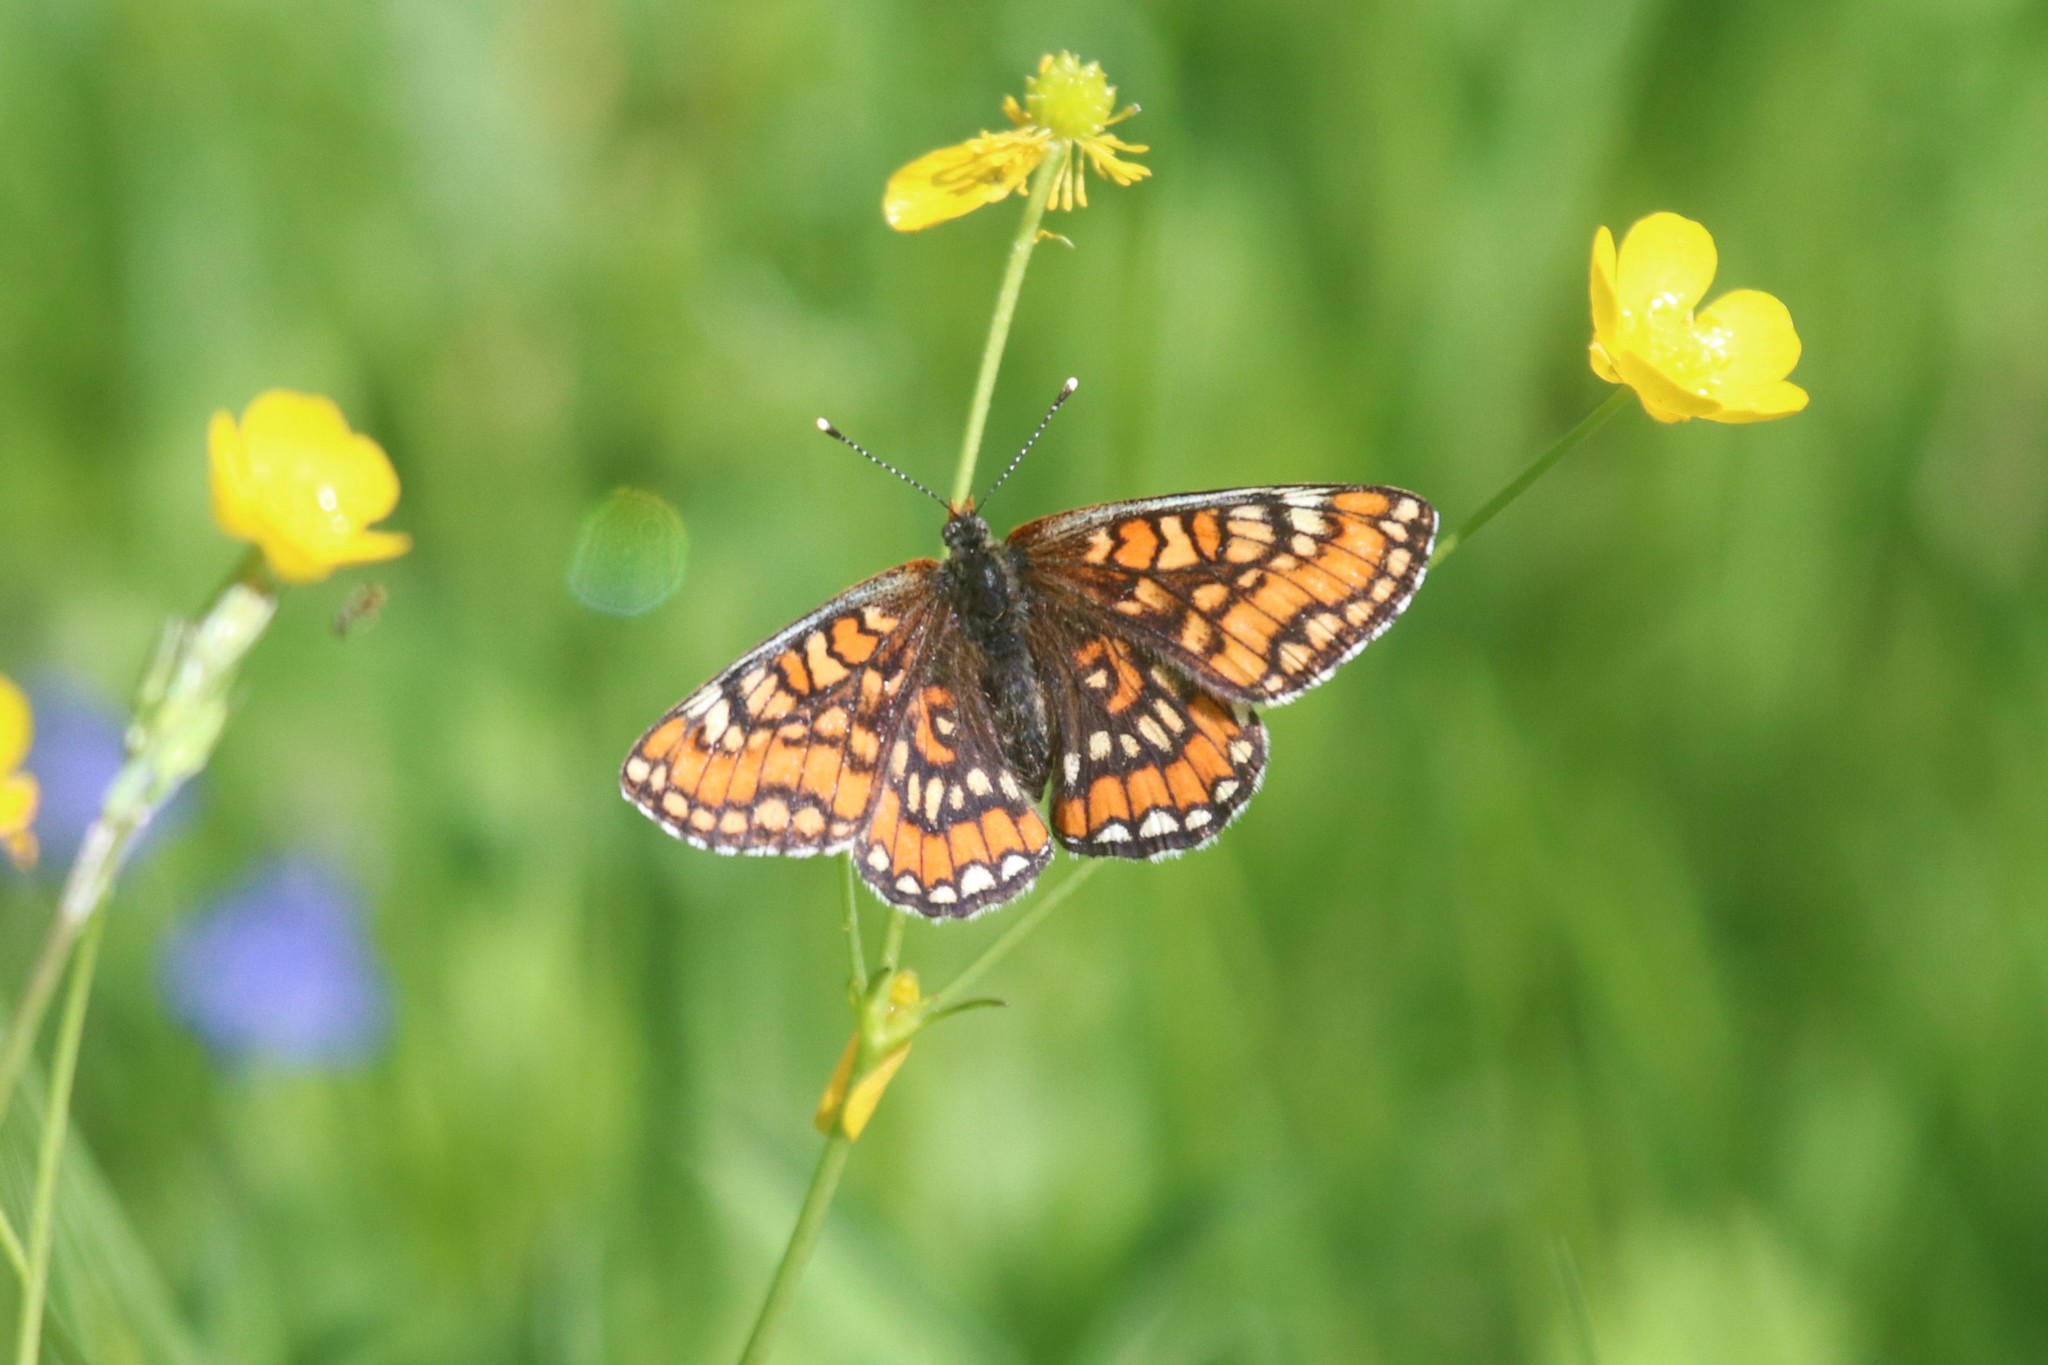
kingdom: Animalia
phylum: Arthropoda
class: Insecta
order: Lepidoptera
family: Nymphalidae
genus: Euphydryas
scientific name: Euphydryas maturna
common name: Scarce fritillary
